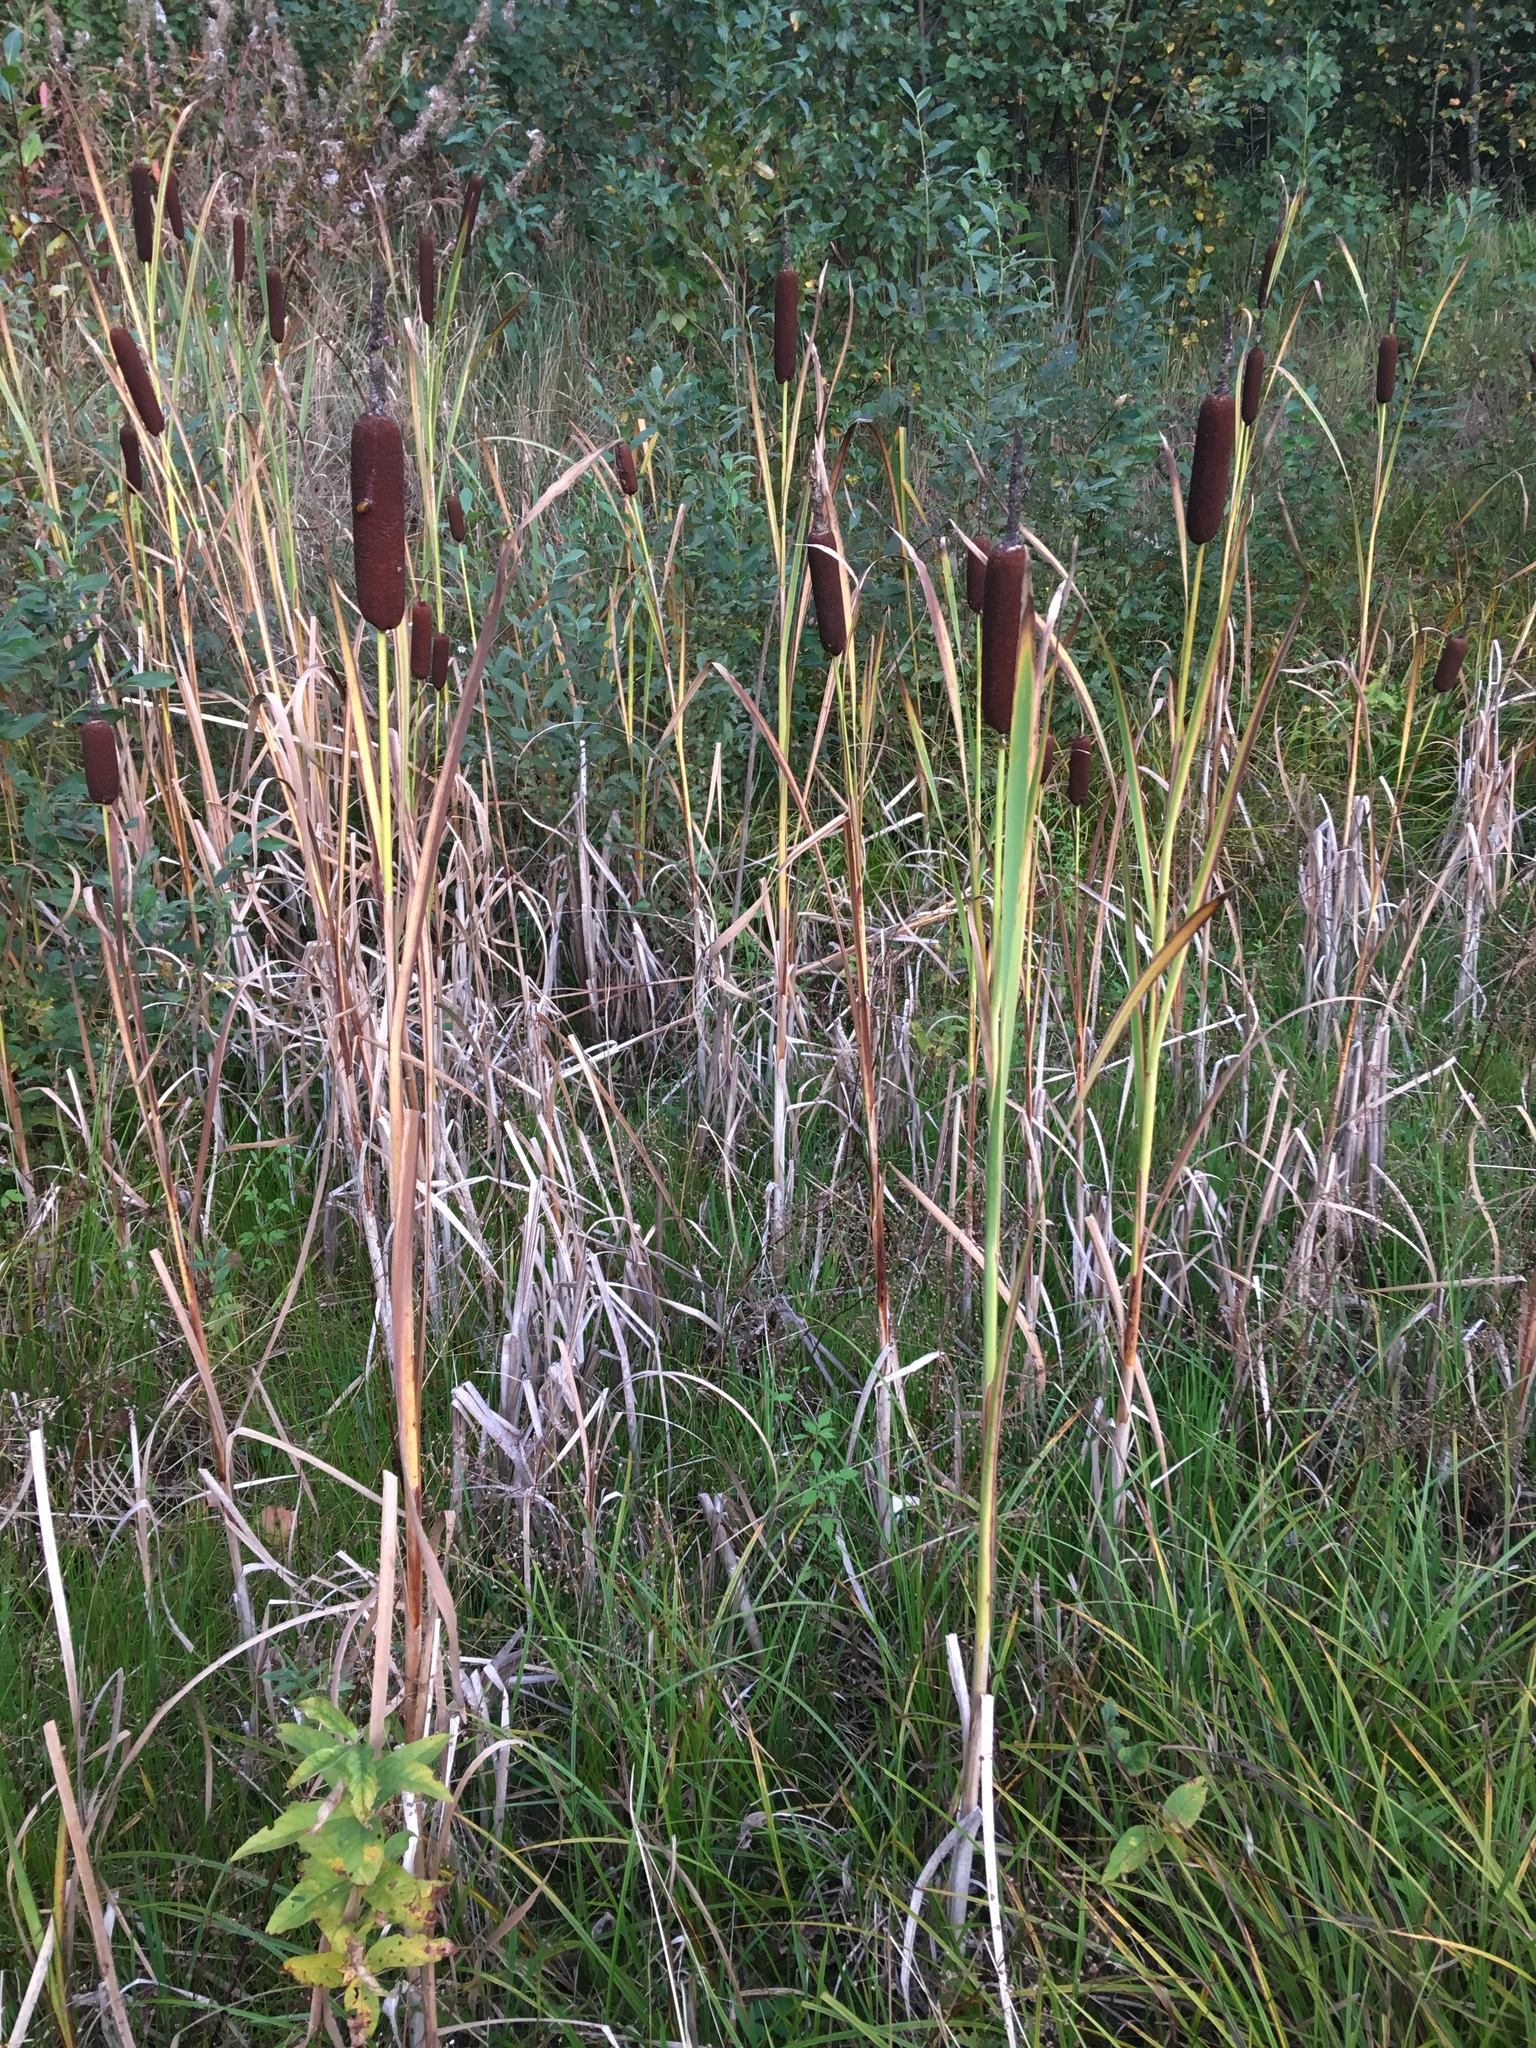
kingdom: Plantae
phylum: Tracheophyta
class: Liliopsida
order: Poales
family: Typhaceae
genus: Typha
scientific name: Typha latifolia
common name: Broadleaf cattail
